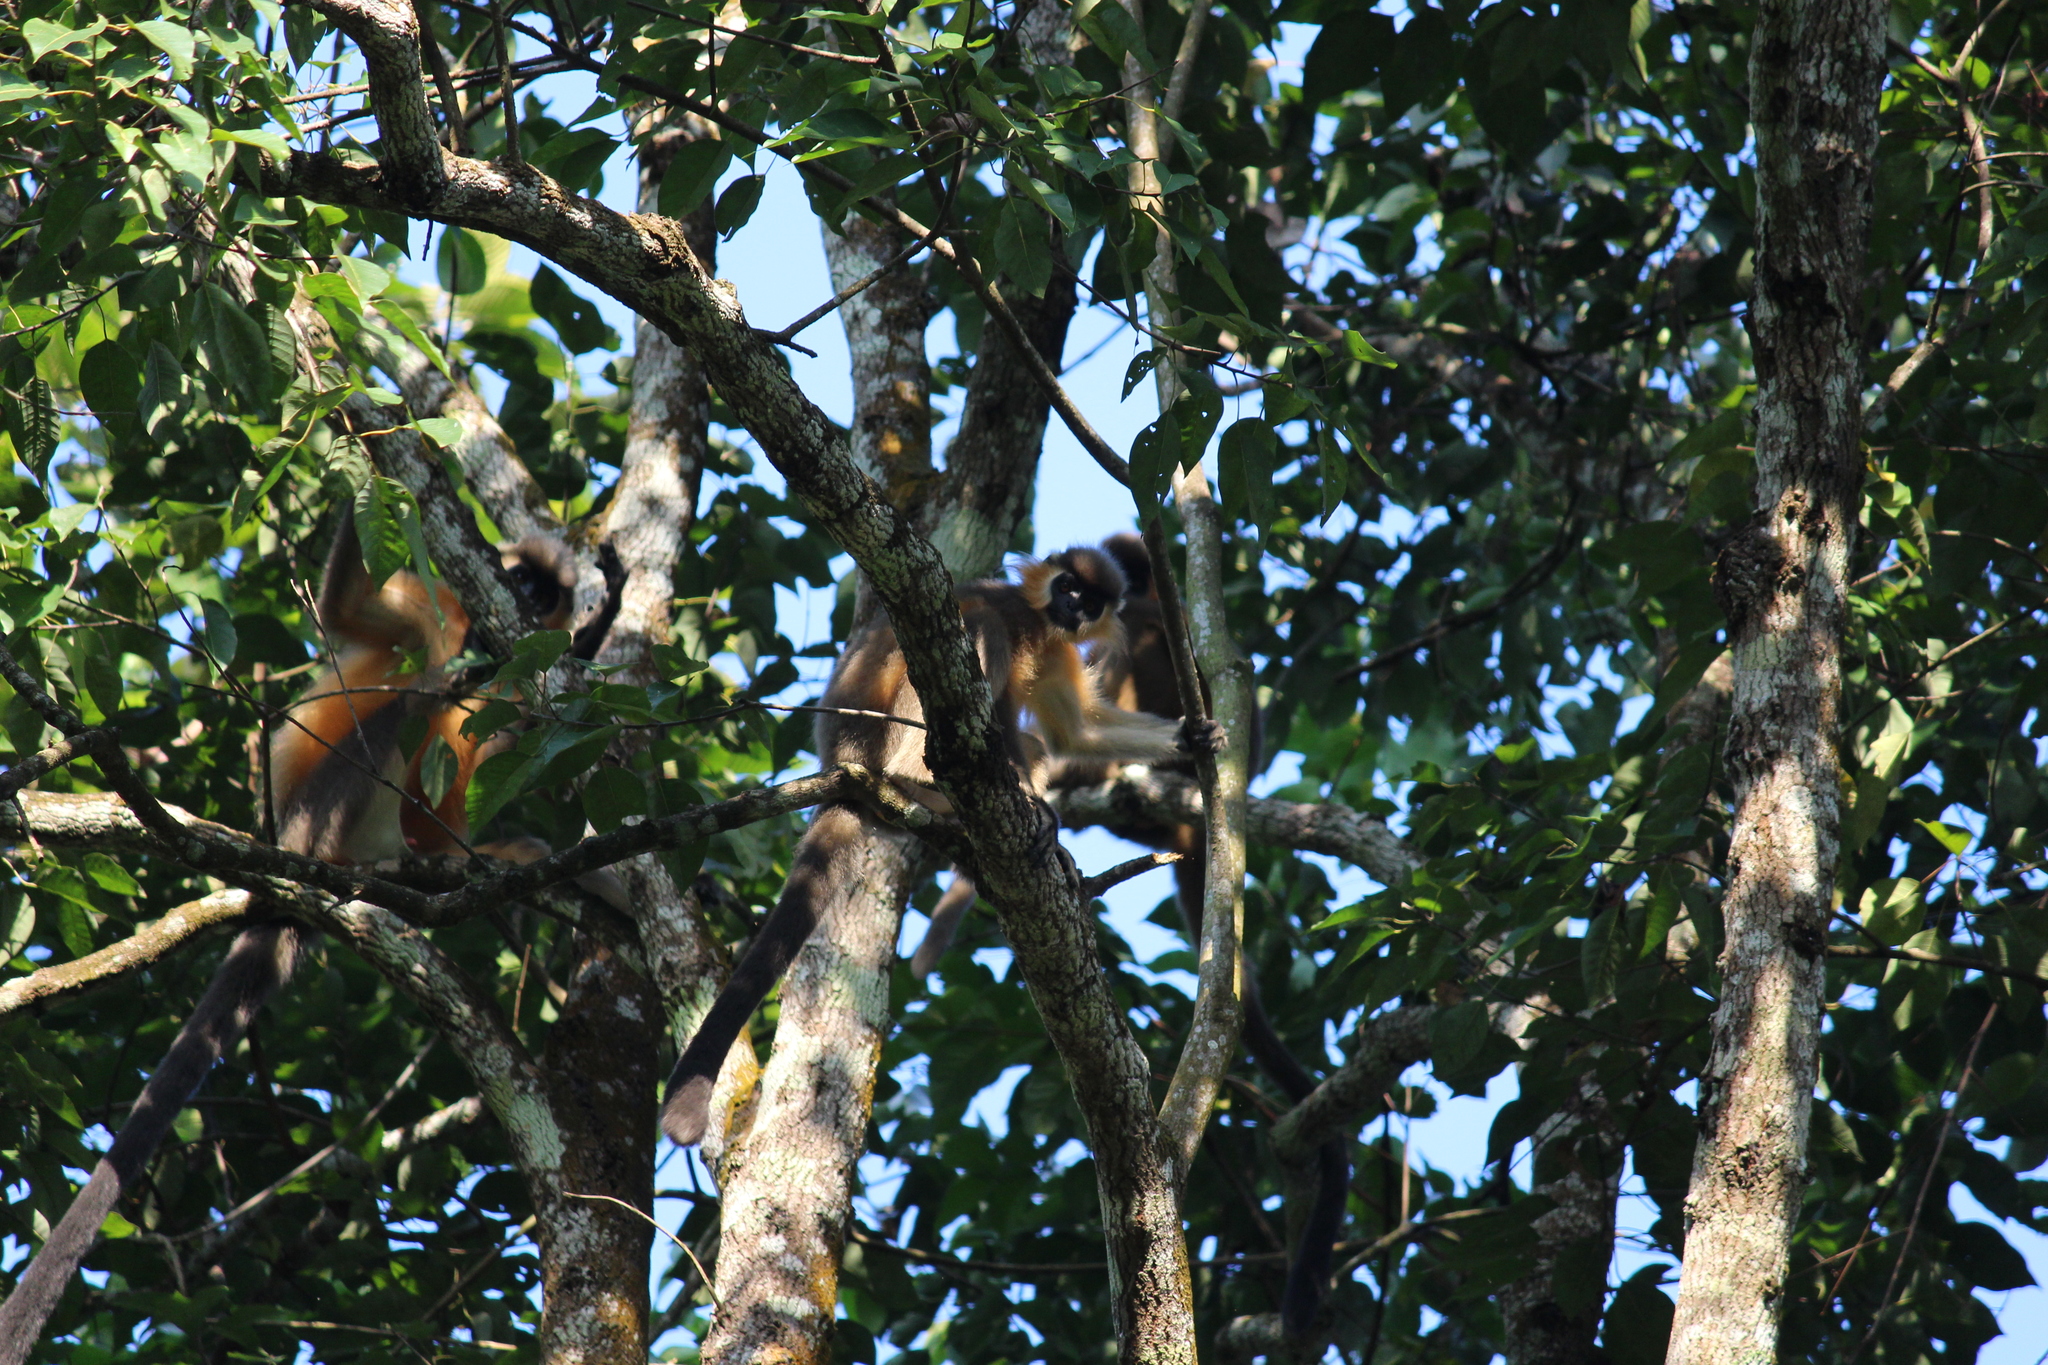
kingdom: Animalia
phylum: Chordata
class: Mammalia
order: Primates
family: Cercopithecidae
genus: Trachypithecus
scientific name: Trachypithecus pileatus
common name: Capped langur
